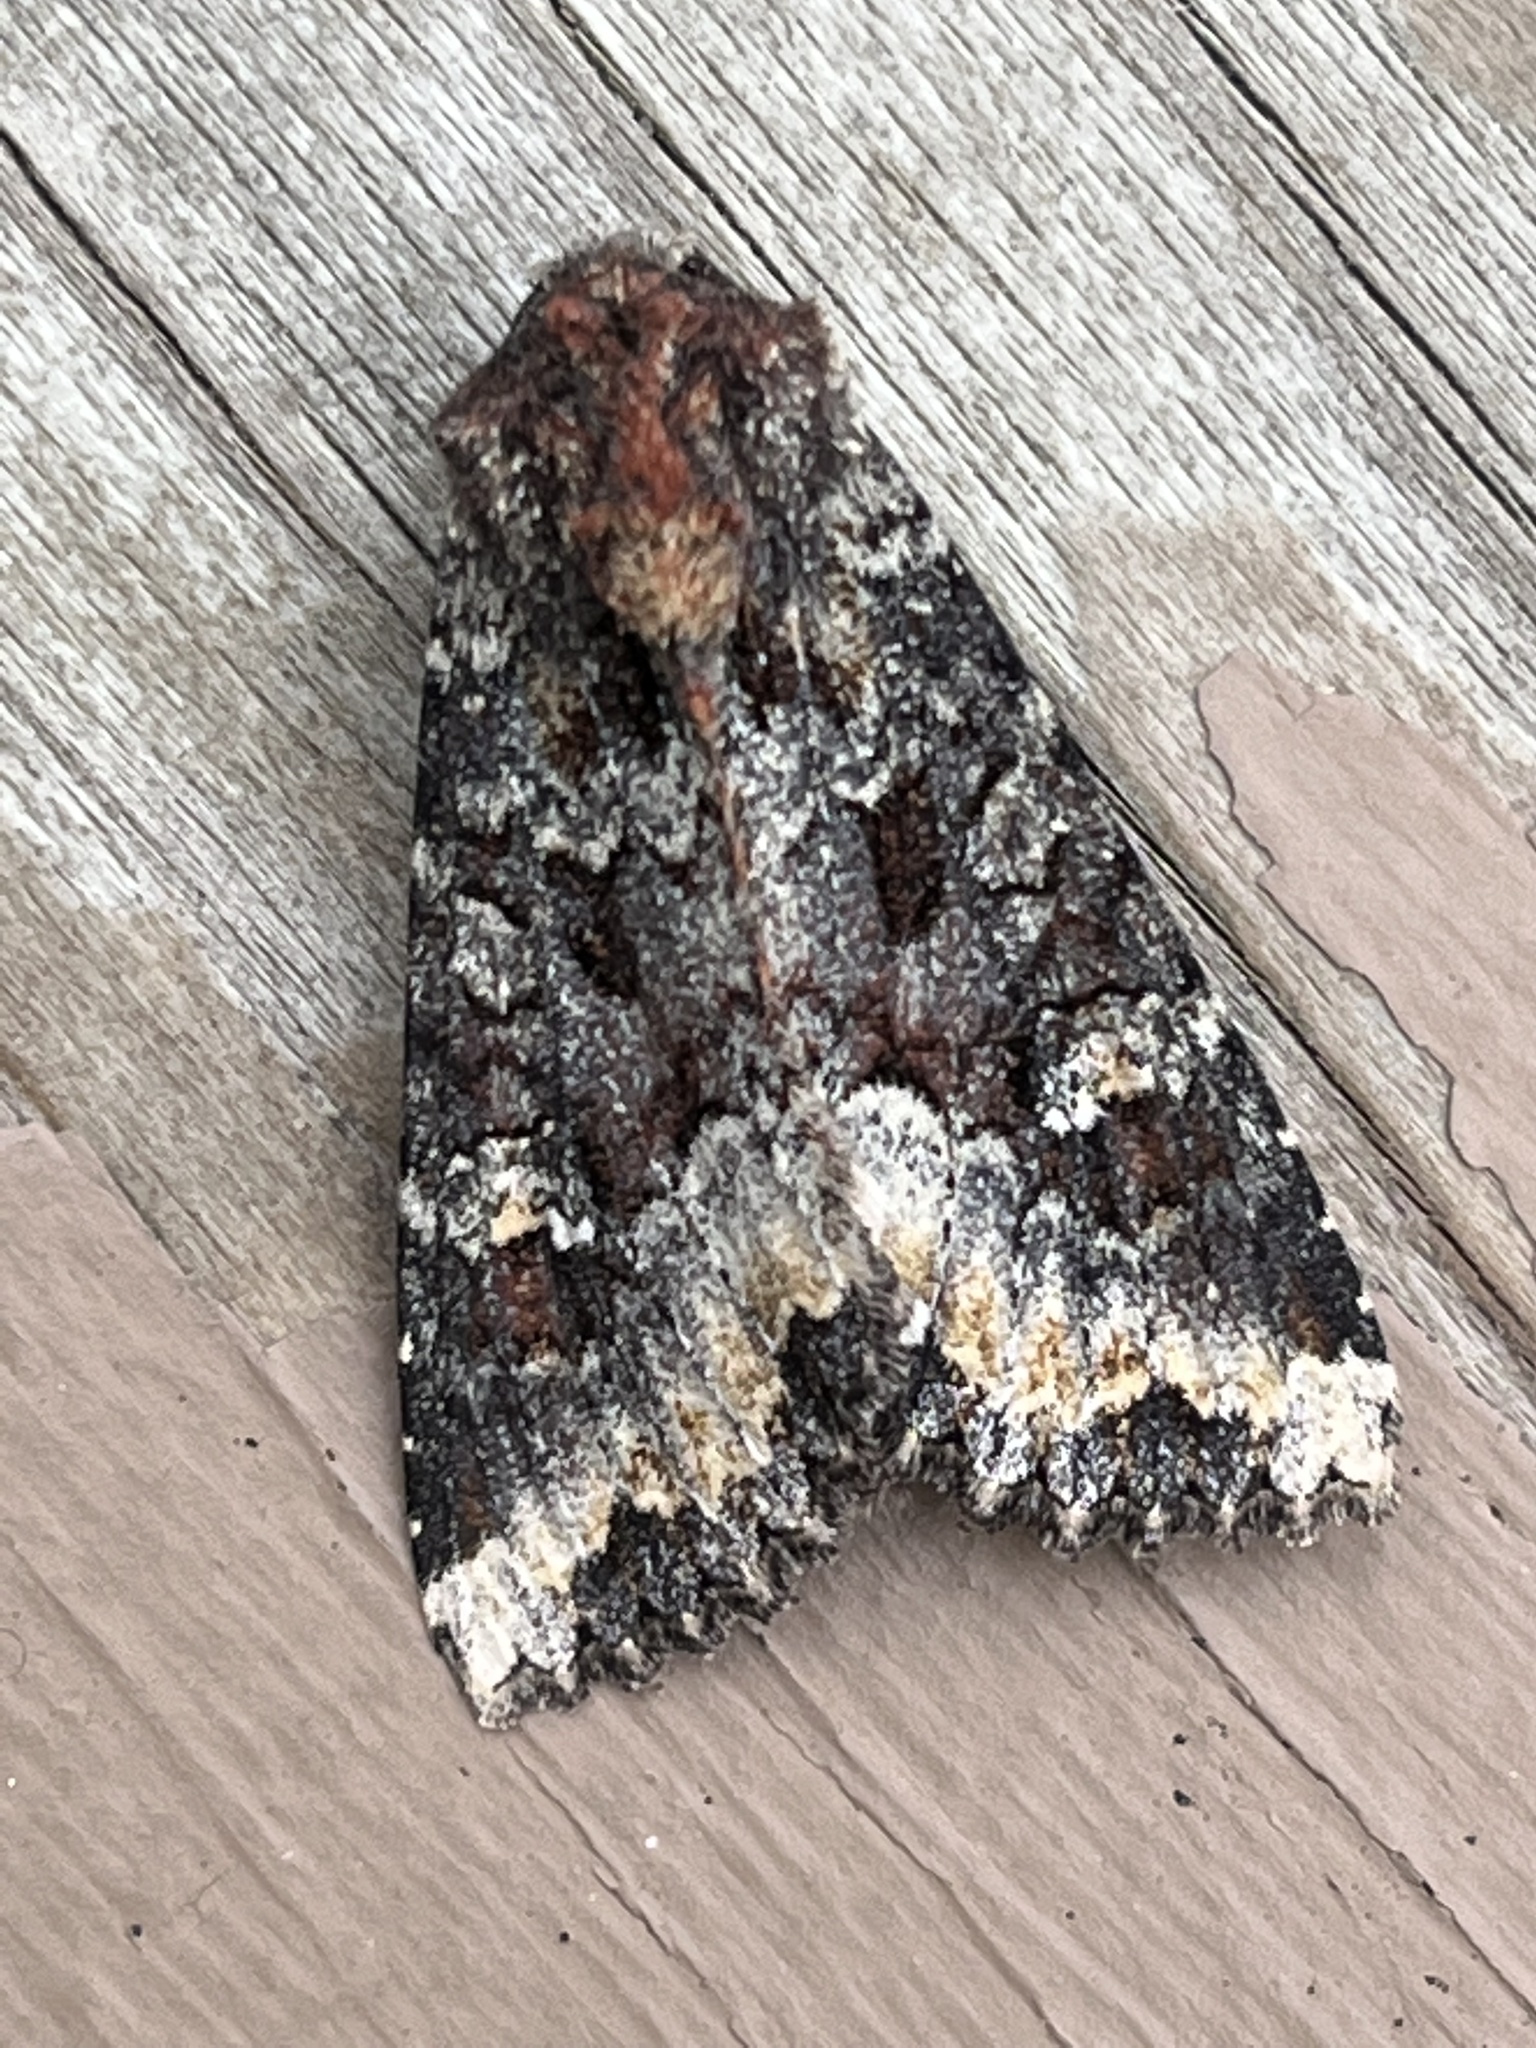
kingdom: Animalia
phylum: Arthropoda
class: Insecta
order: Lepidoptera
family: Noctuidae
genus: Apamea
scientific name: Apamea amputatrix
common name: Yellow-headed cutworm moth
